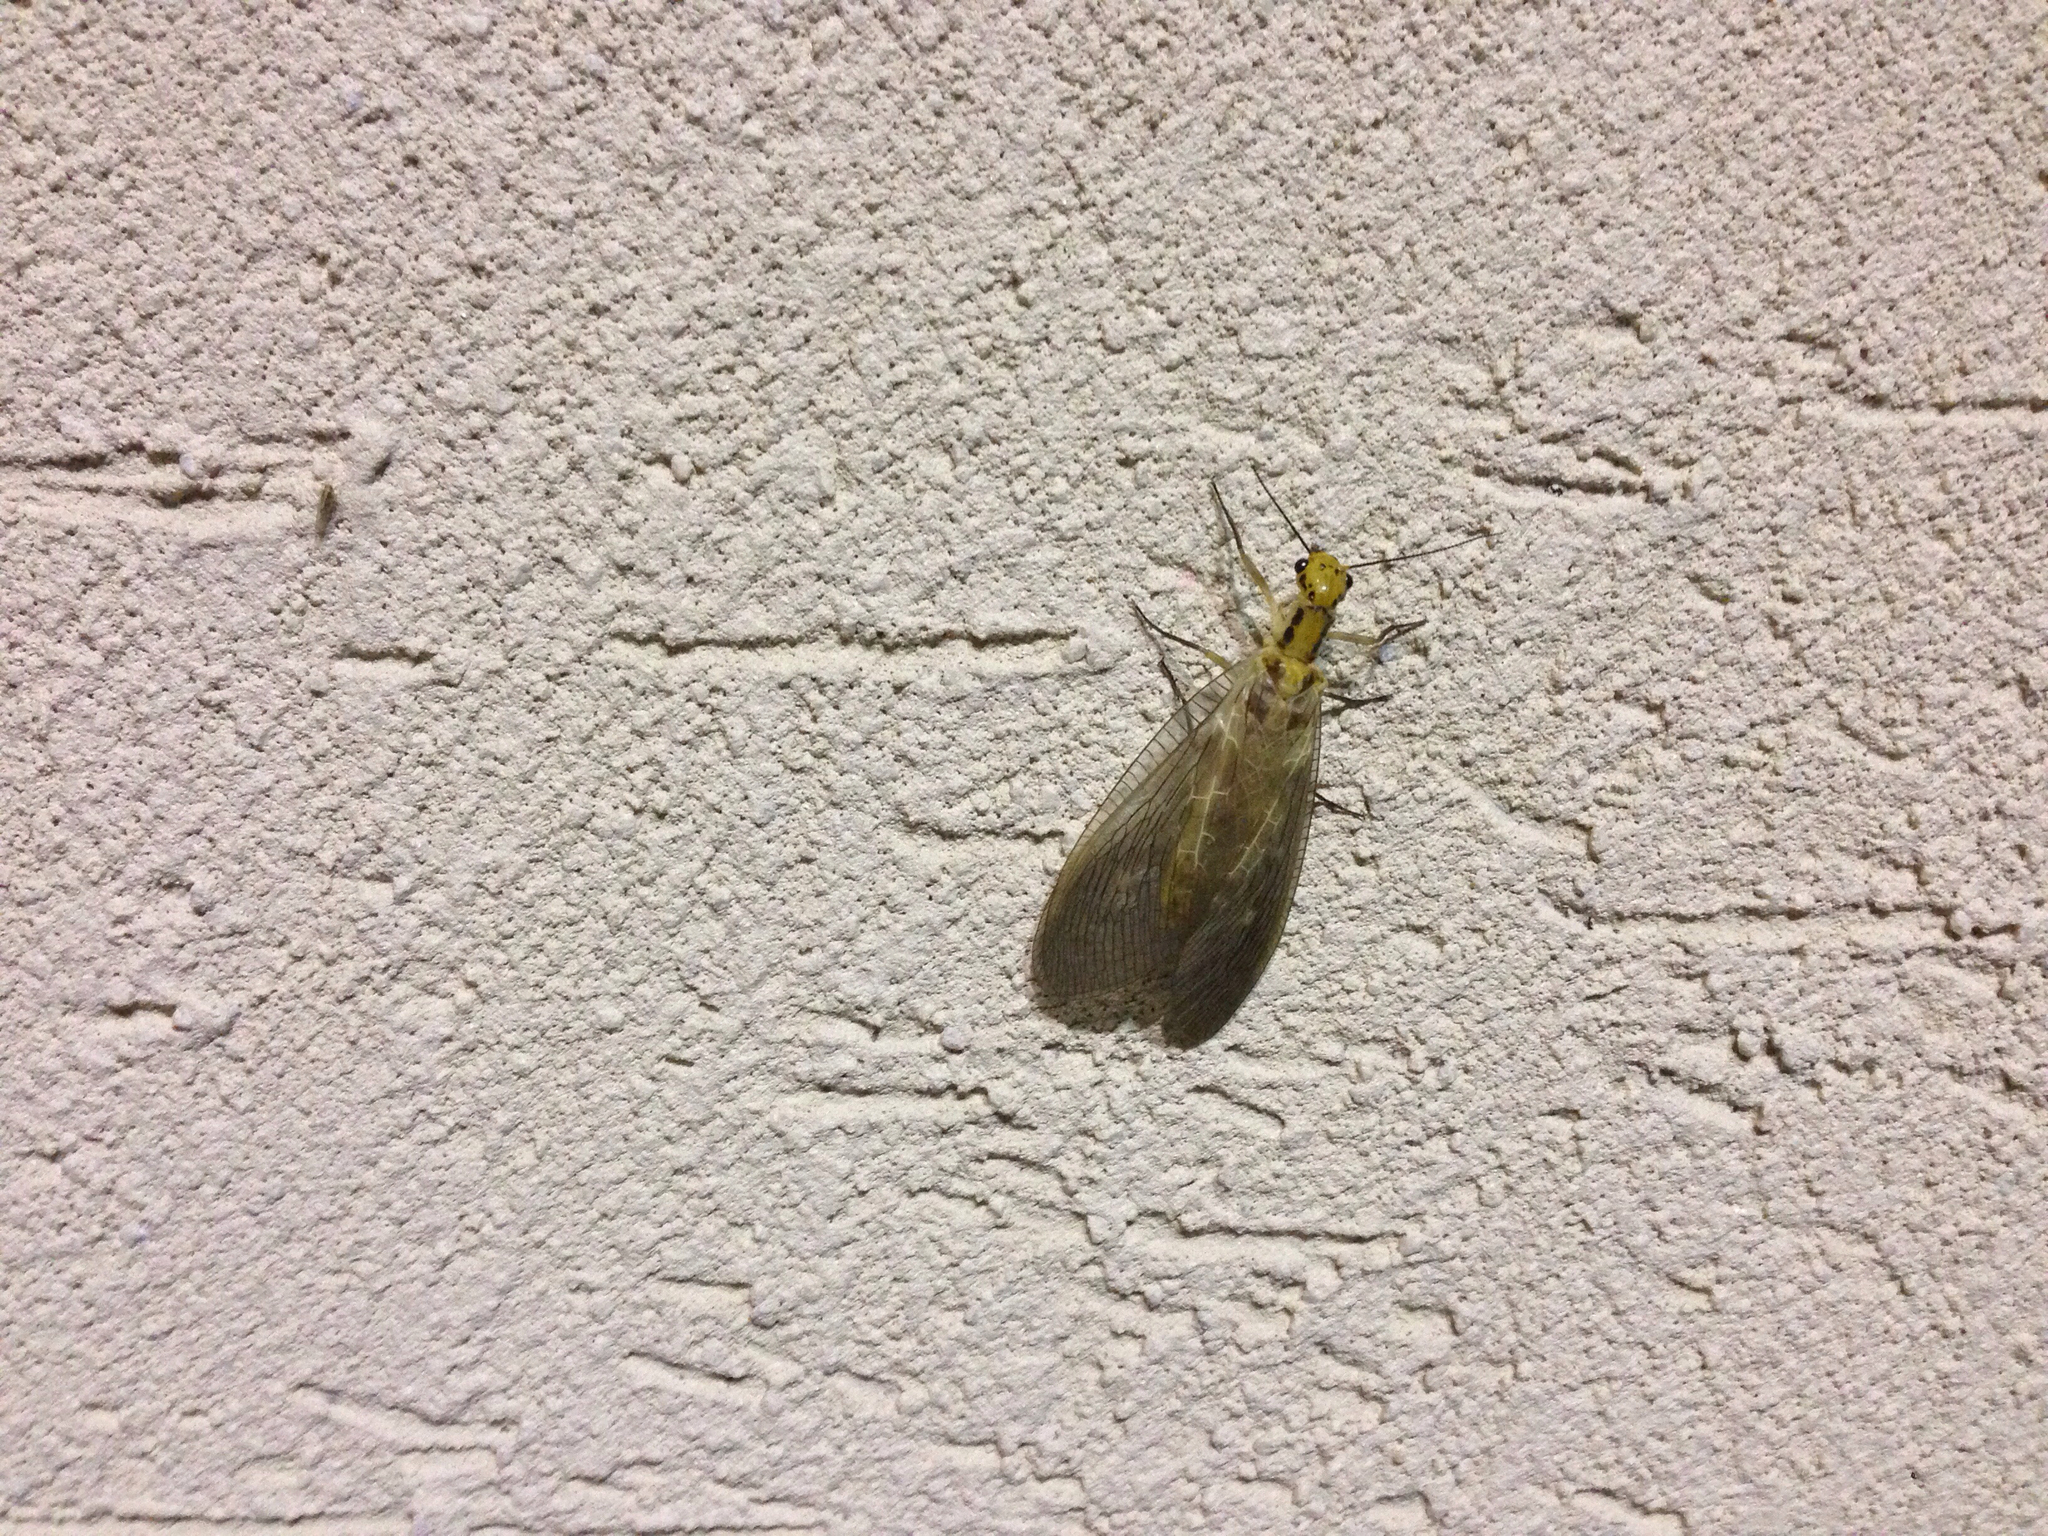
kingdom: Animalia
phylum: Arthropoda
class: Insecta
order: Megaloptera
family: Corydalidae
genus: Protohermes
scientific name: Protohermes xanthodes
